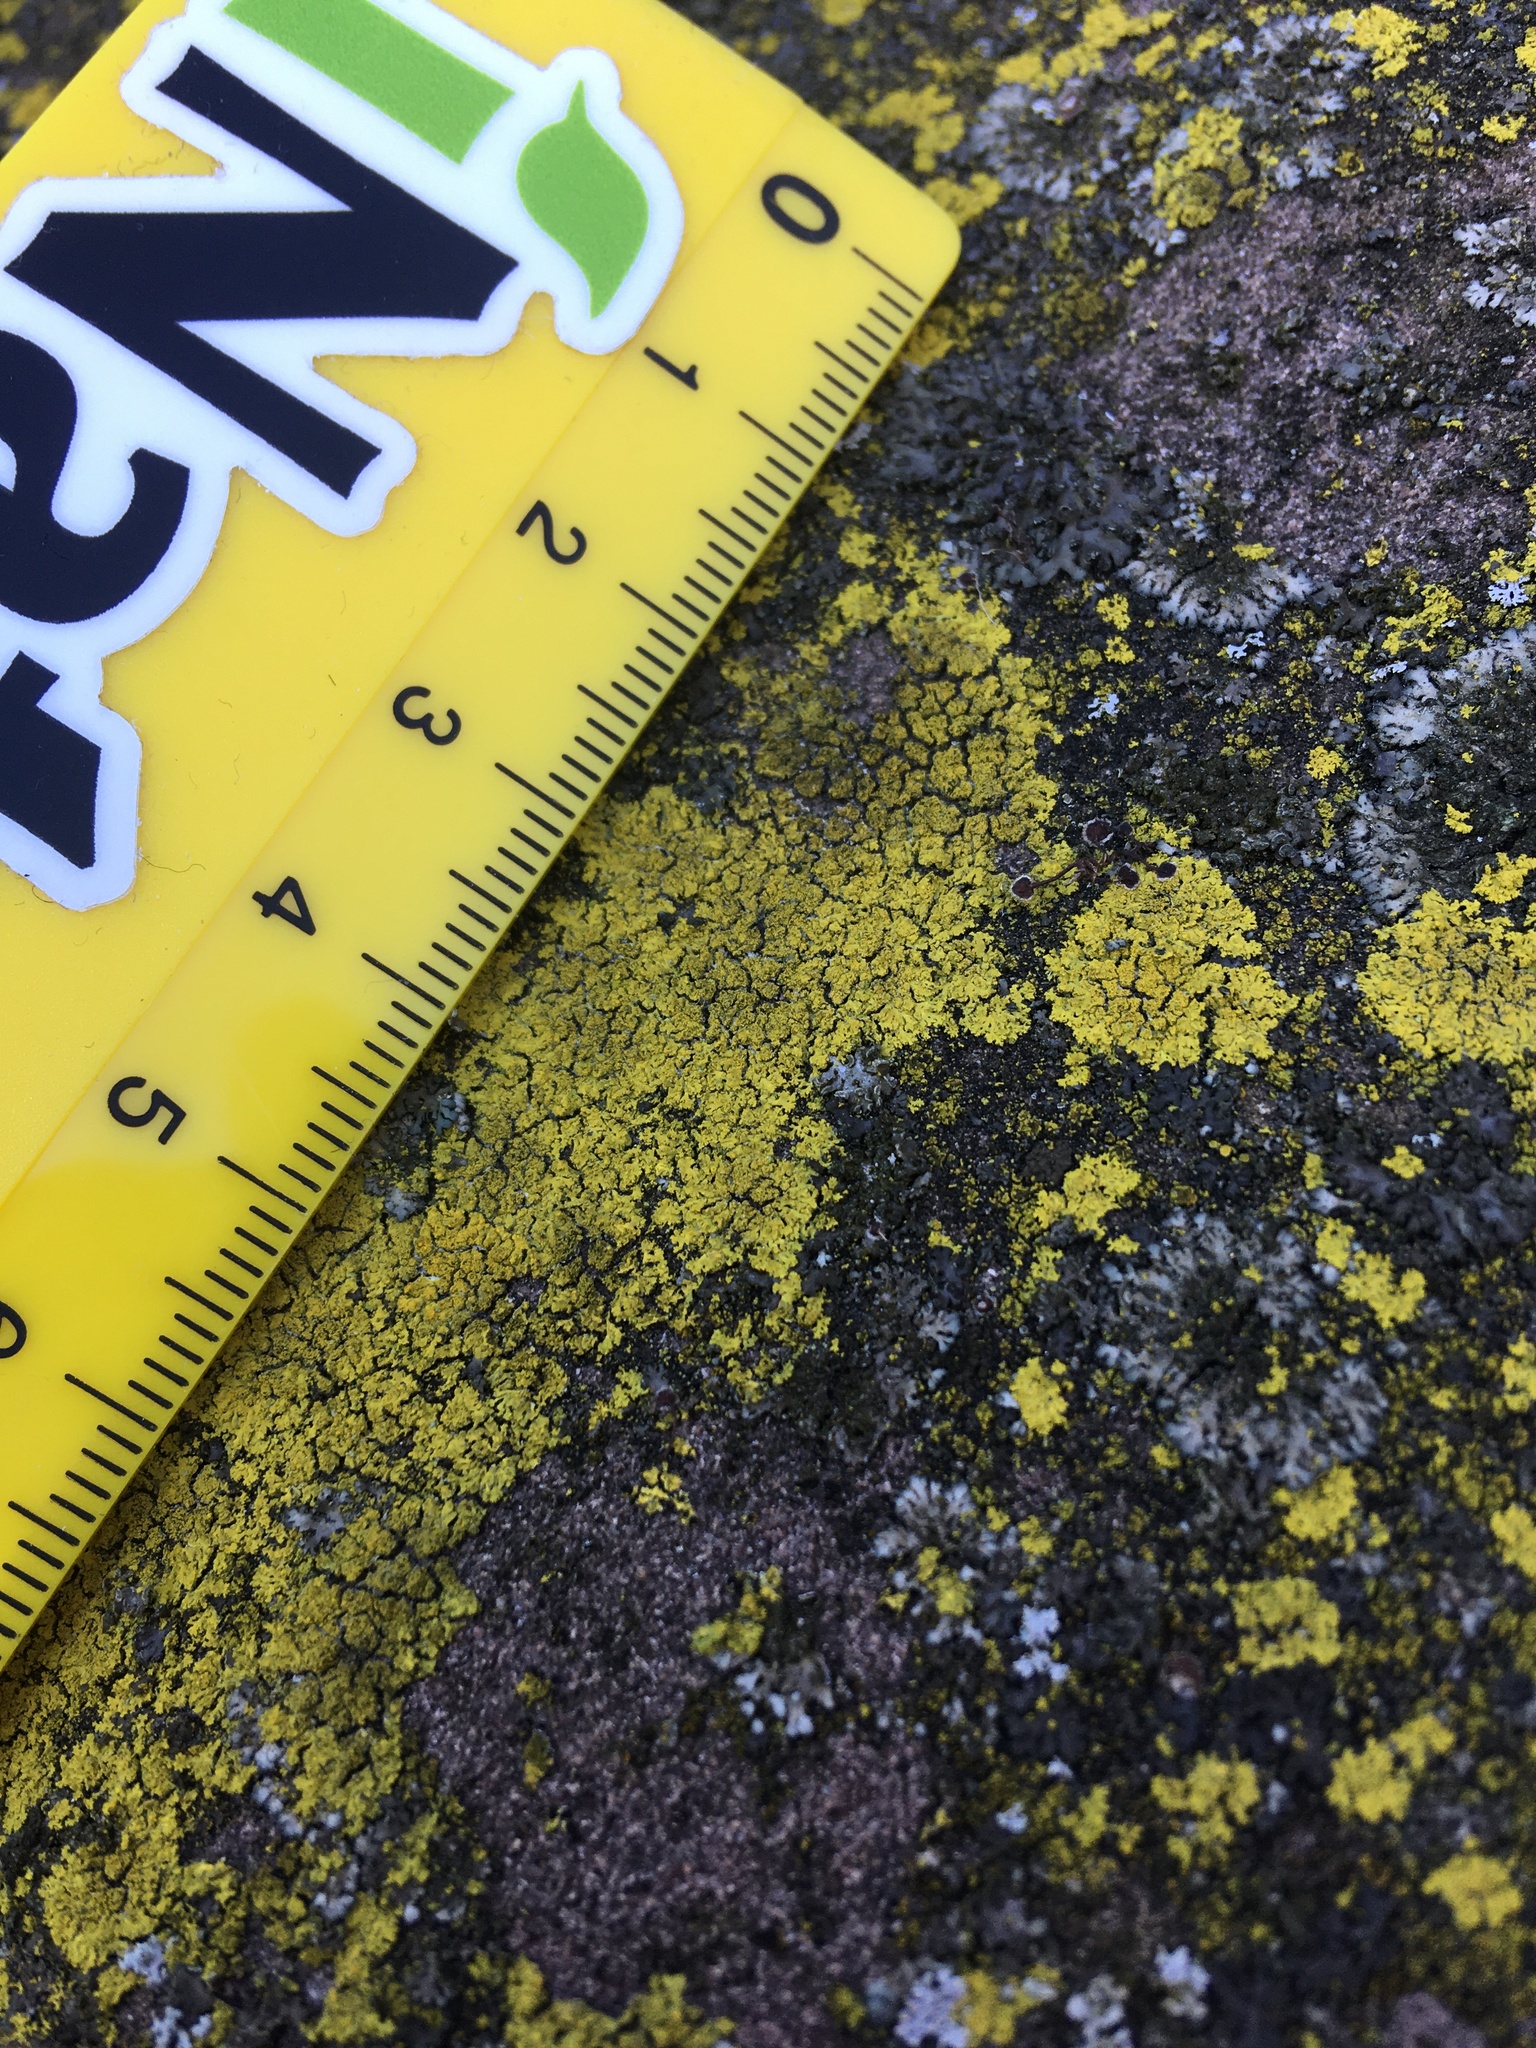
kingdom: Fungi
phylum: Ascomycota
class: Candelariomycetes
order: Candelariales
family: Candelariaceae
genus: Candelaria
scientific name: Candelaria concolor
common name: Candleflame lichen
